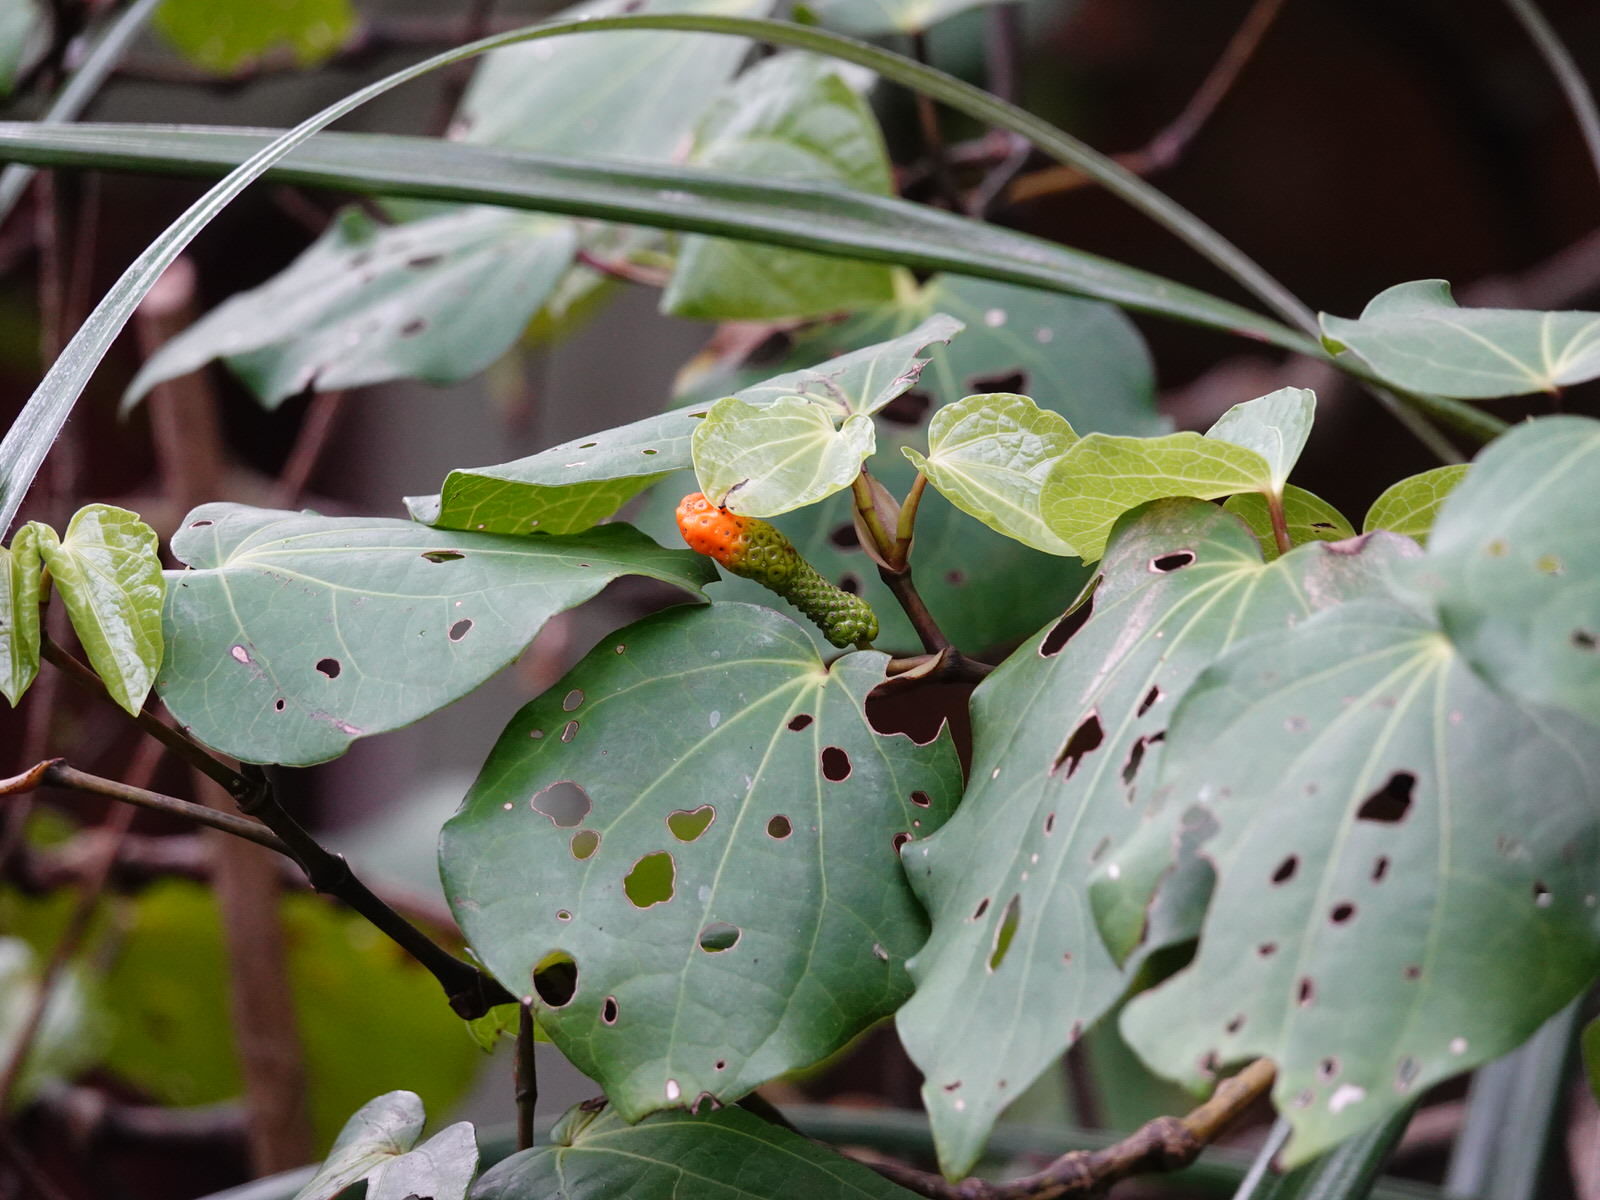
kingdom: Plantae
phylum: Tracheophyta
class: Magnoliopsida
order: Piperales
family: Piperaceae
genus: Macropiper
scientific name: Macropiper excelsum
